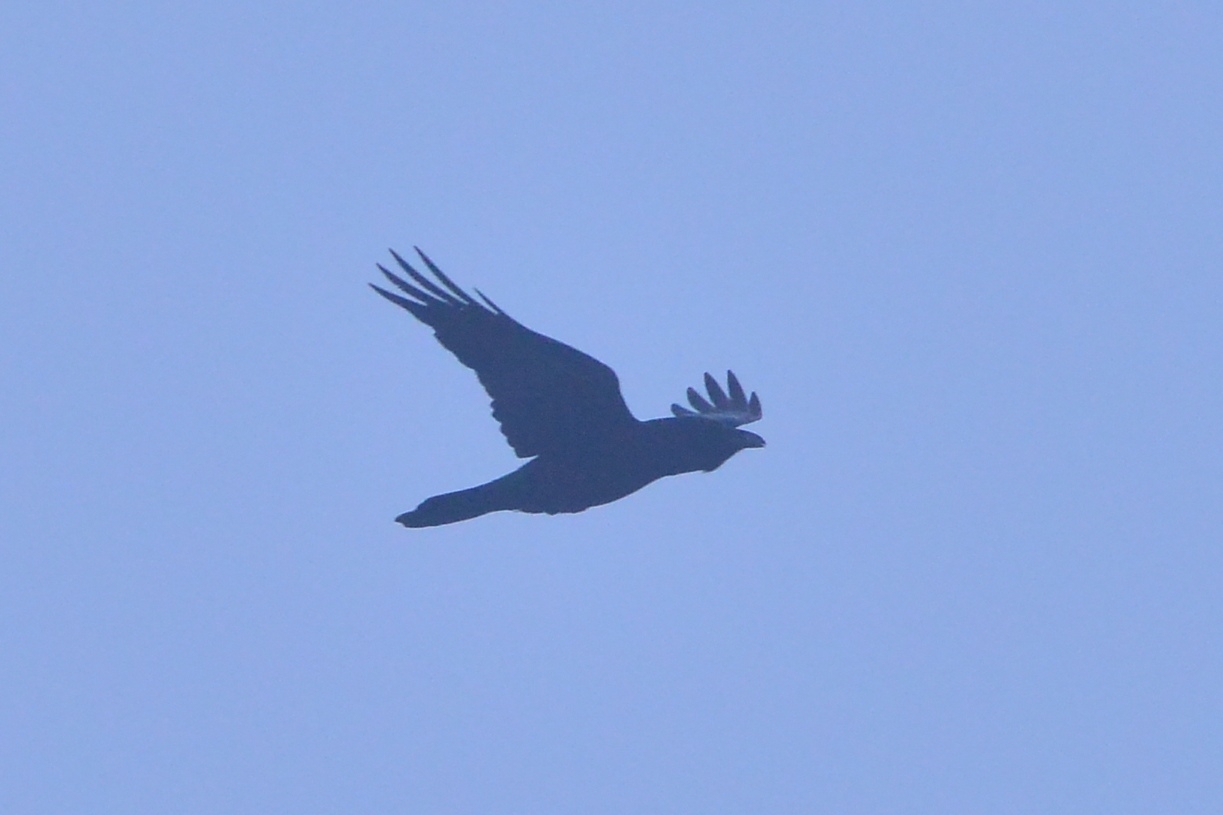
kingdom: Animalia
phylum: Chordata
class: Aves
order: Passeriformes
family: Corvidae
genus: Corvus
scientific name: Corvus corax
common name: Common raven
